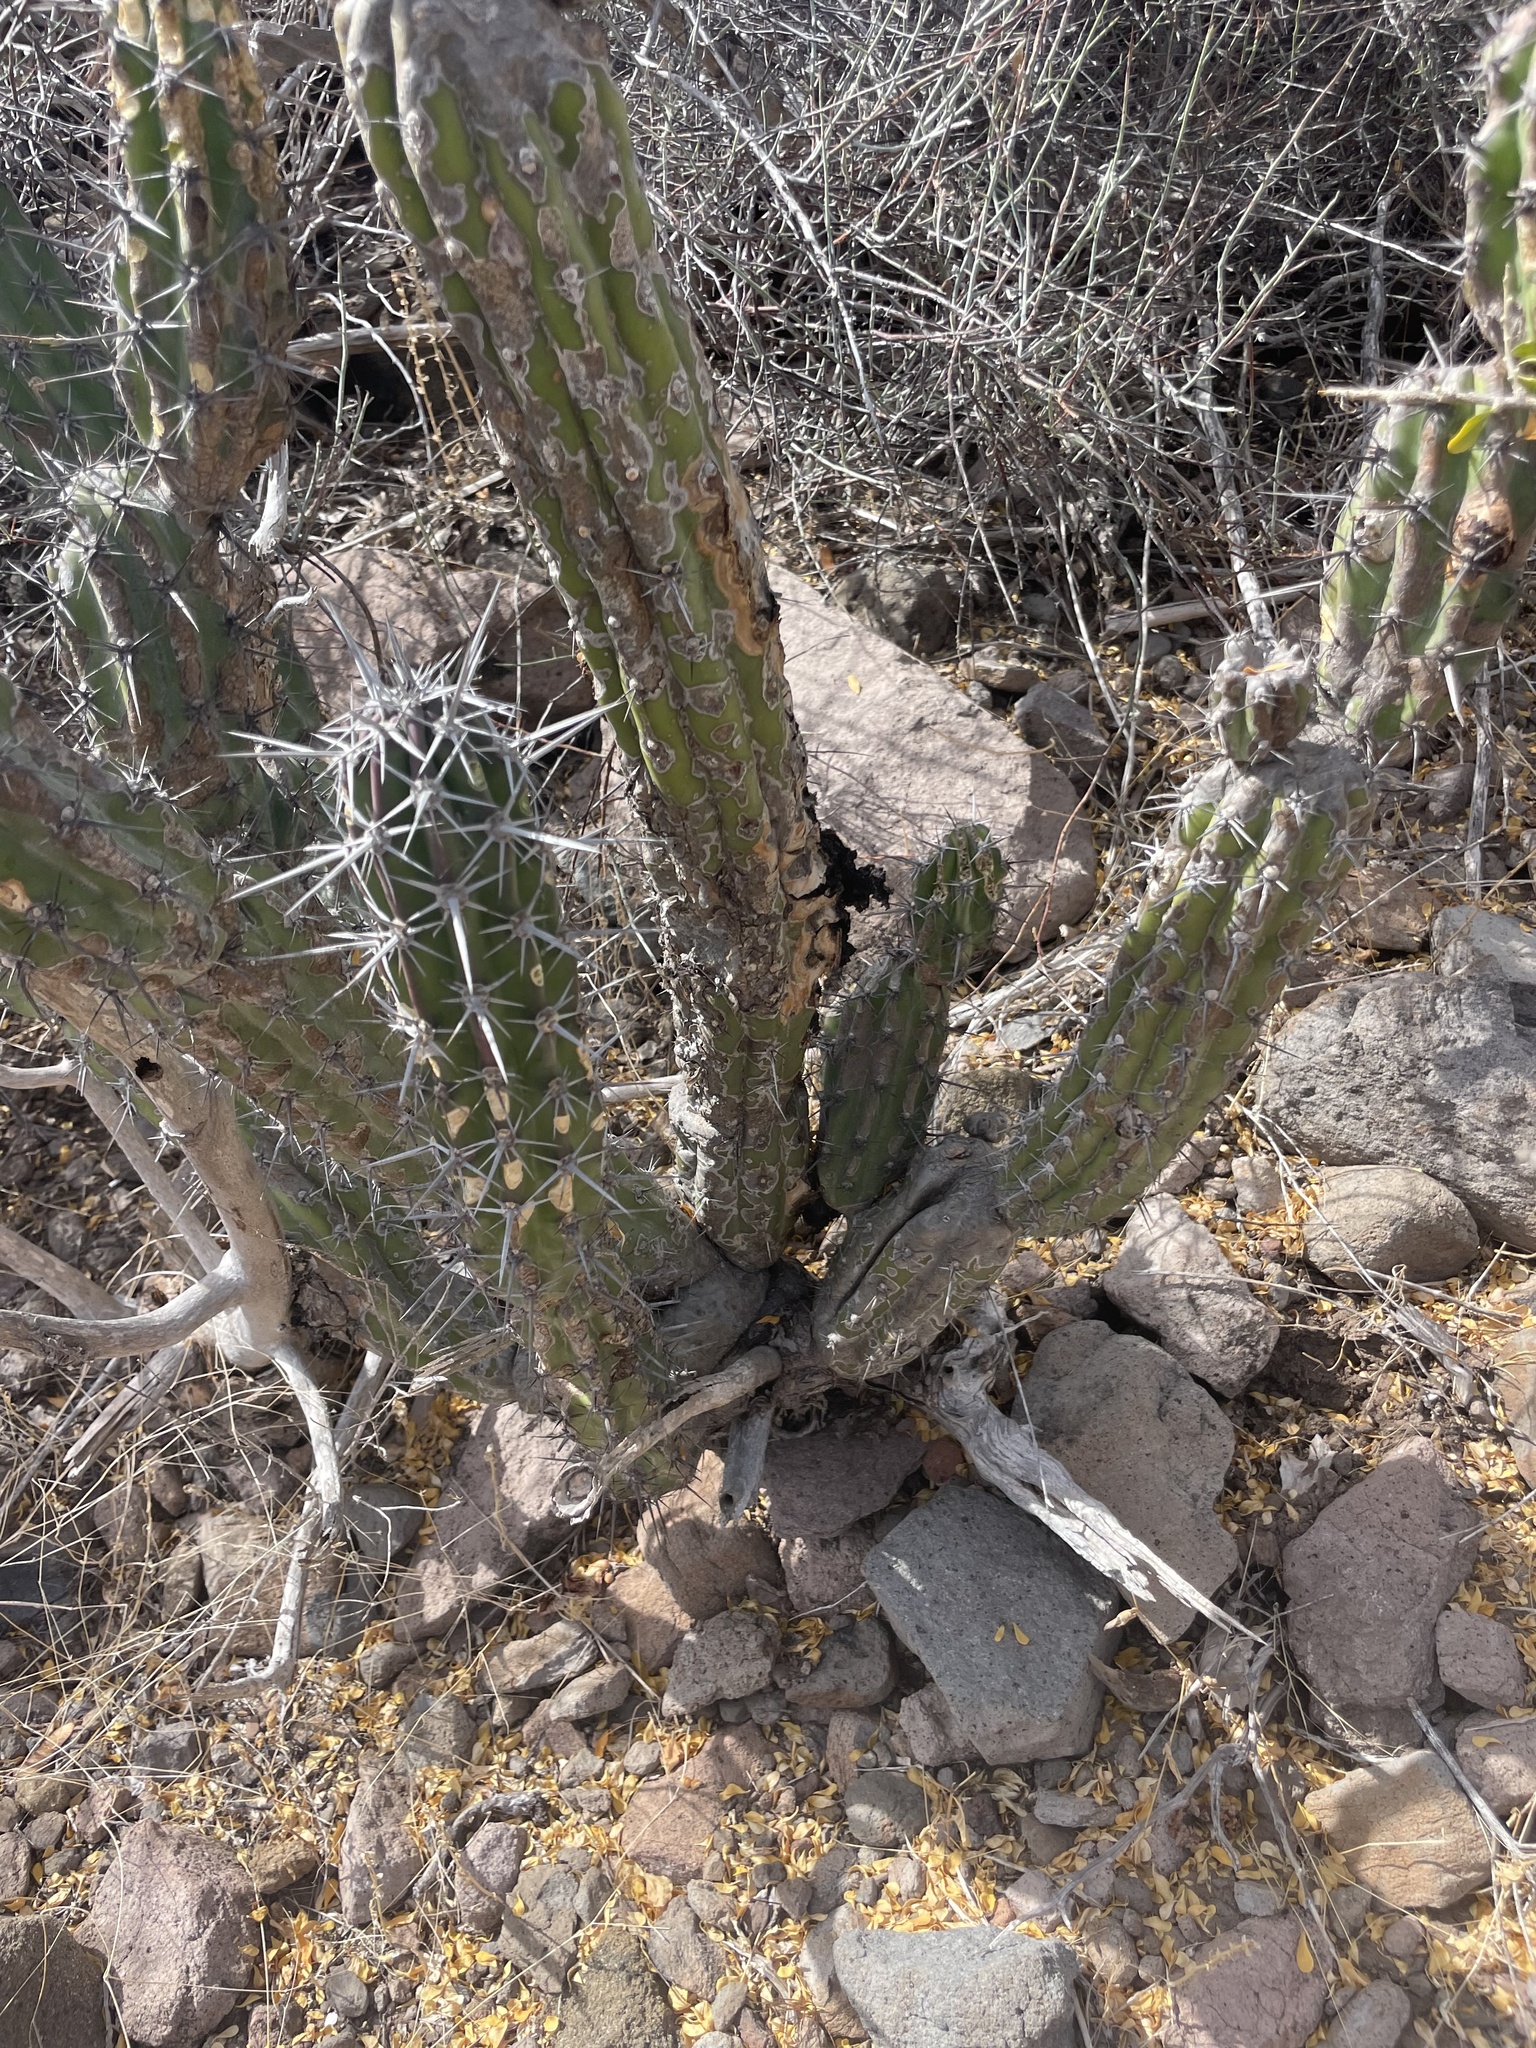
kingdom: Plantae
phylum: Tracheophyta
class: Magnoliopsida
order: Caryophyllales
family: Cactaceae
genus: Stenocereus
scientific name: Stenocereus gummosus
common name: Dagger cactus
